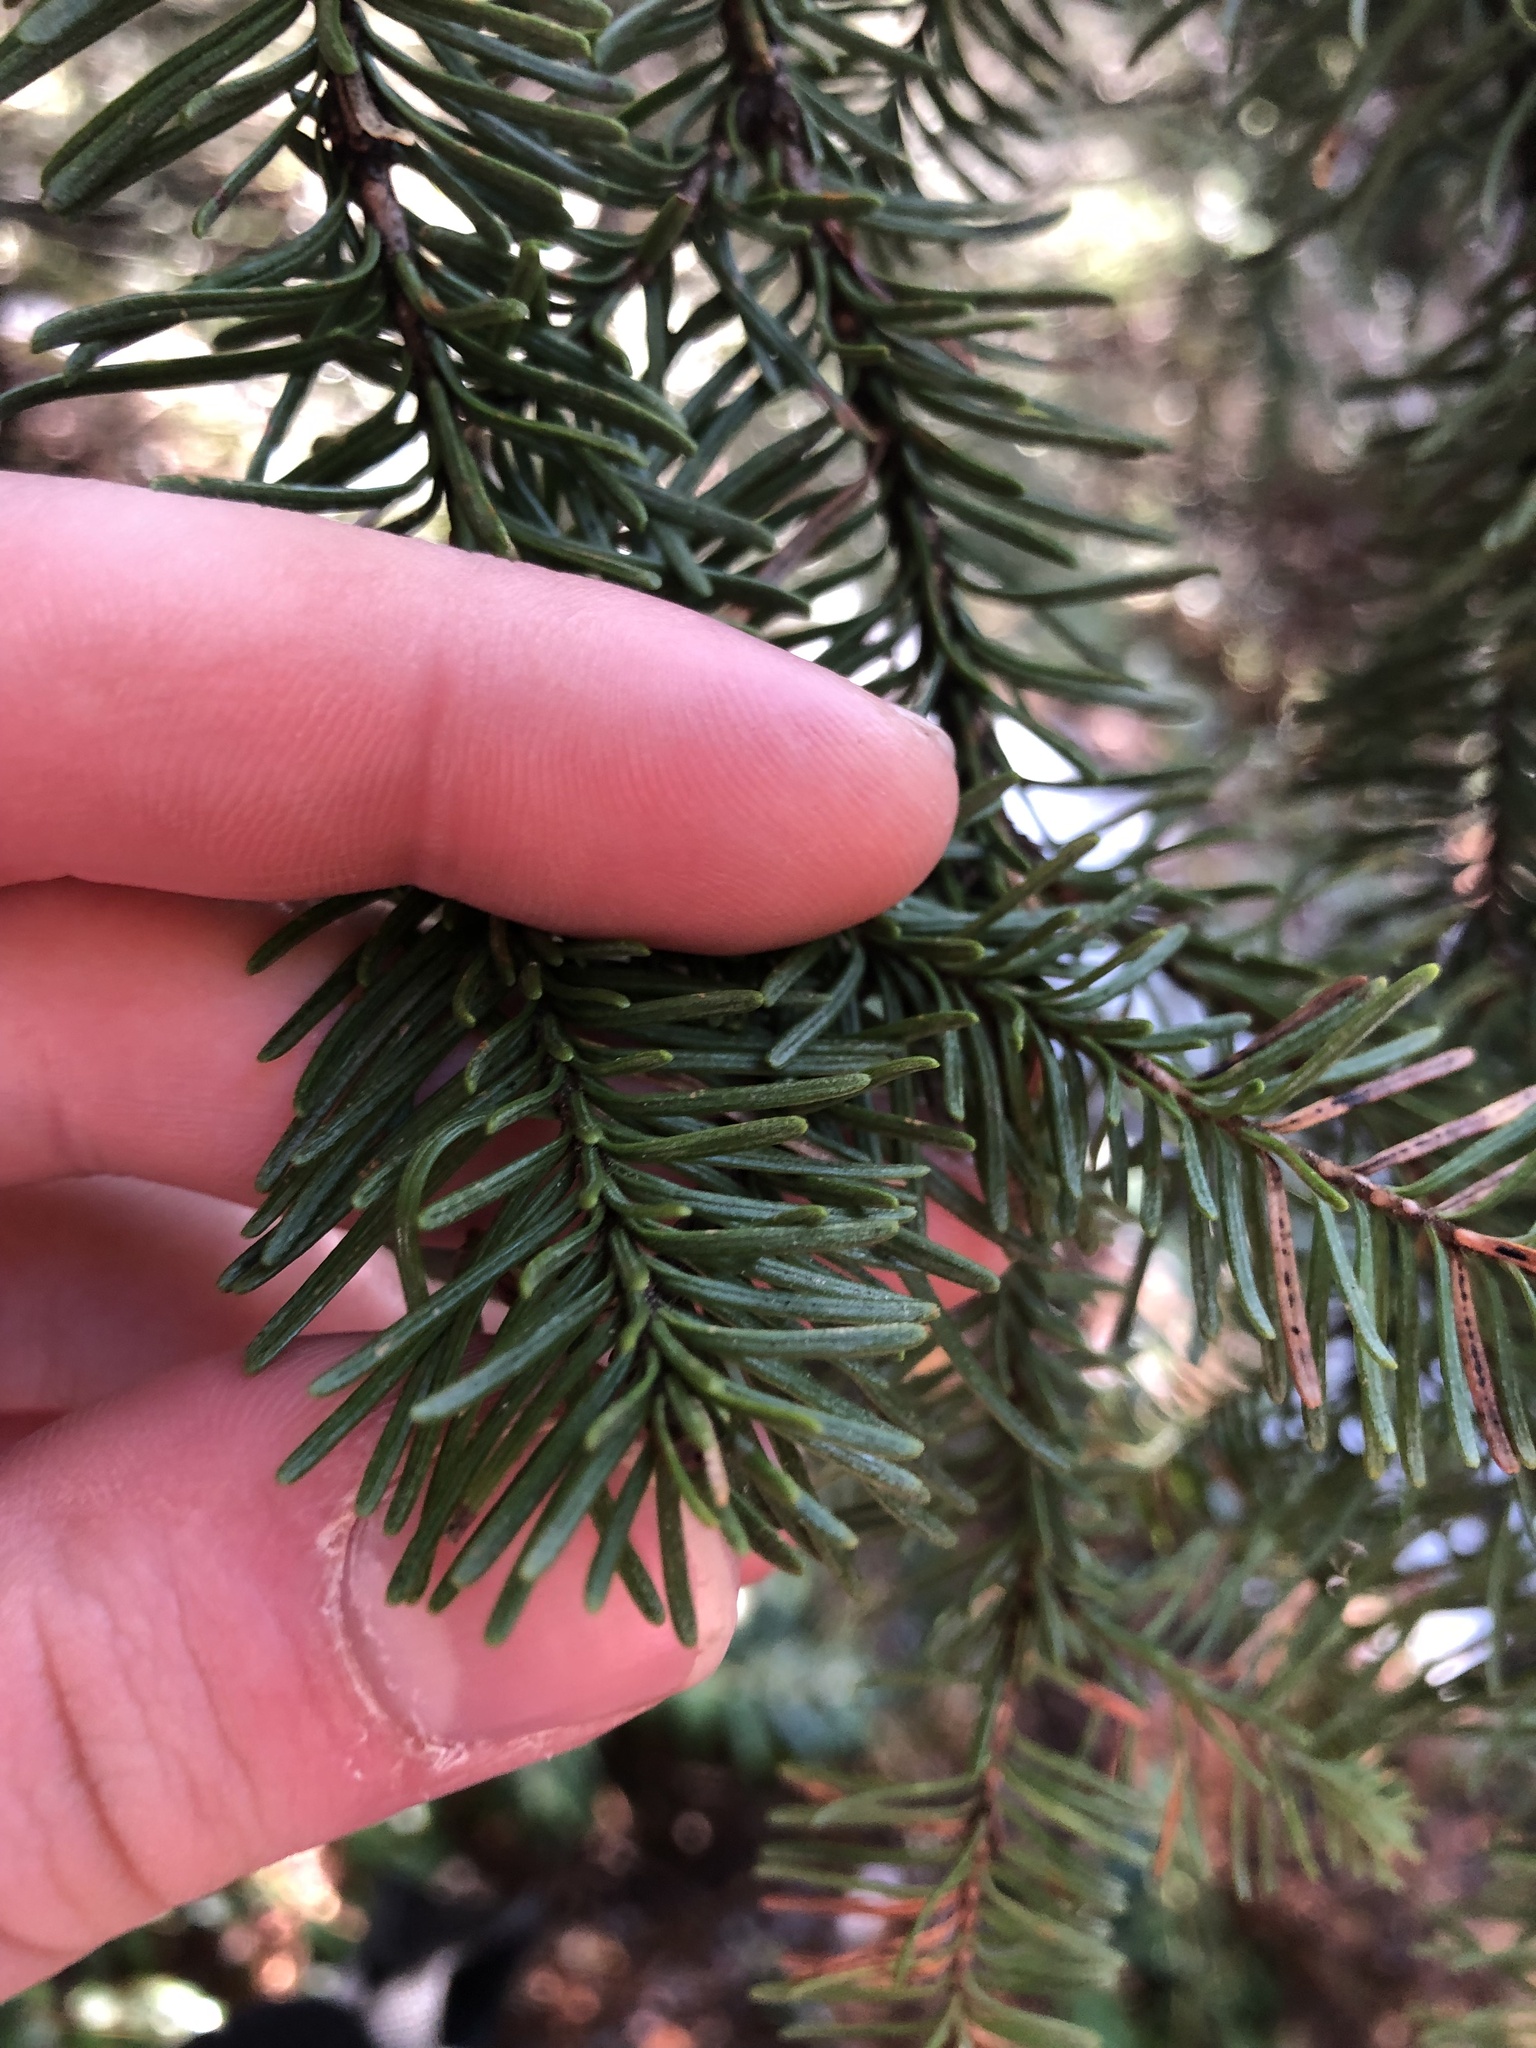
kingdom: Plantae
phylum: Tracheophyta
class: Pinopsida
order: Pinales
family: Pinaceae
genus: Abies
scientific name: Abies procera
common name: Noble fir
